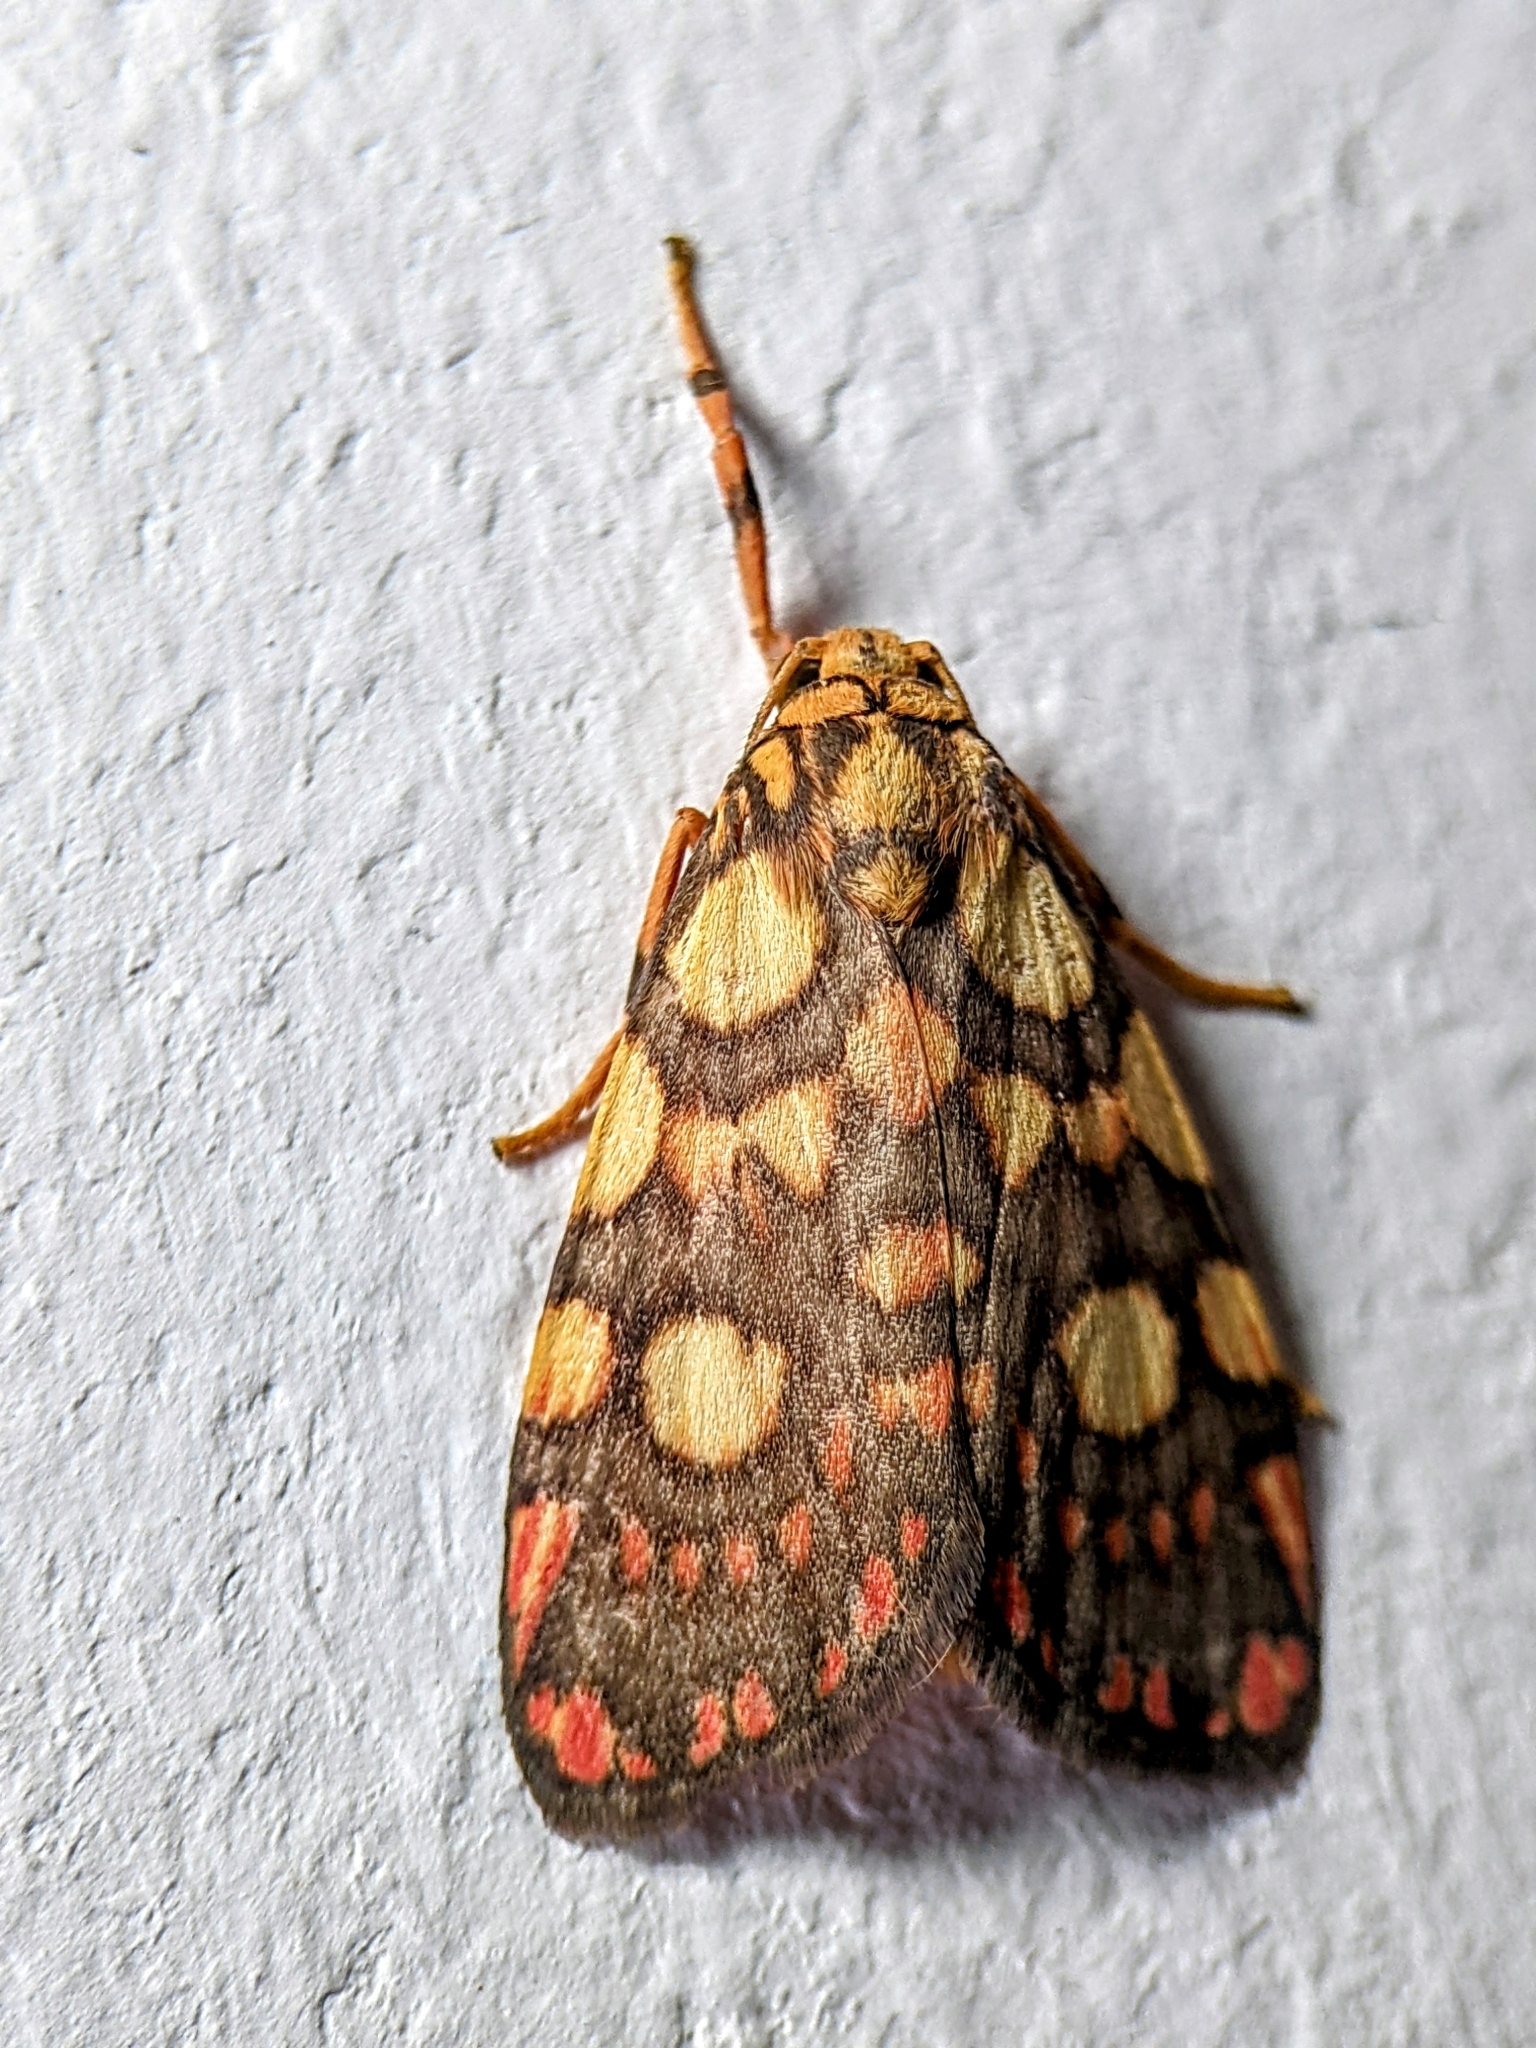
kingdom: Animalia
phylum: Arthropoda
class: Insecta
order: Lepidoptera
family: Erebidae
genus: Cyme
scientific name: Cyme reticulata
